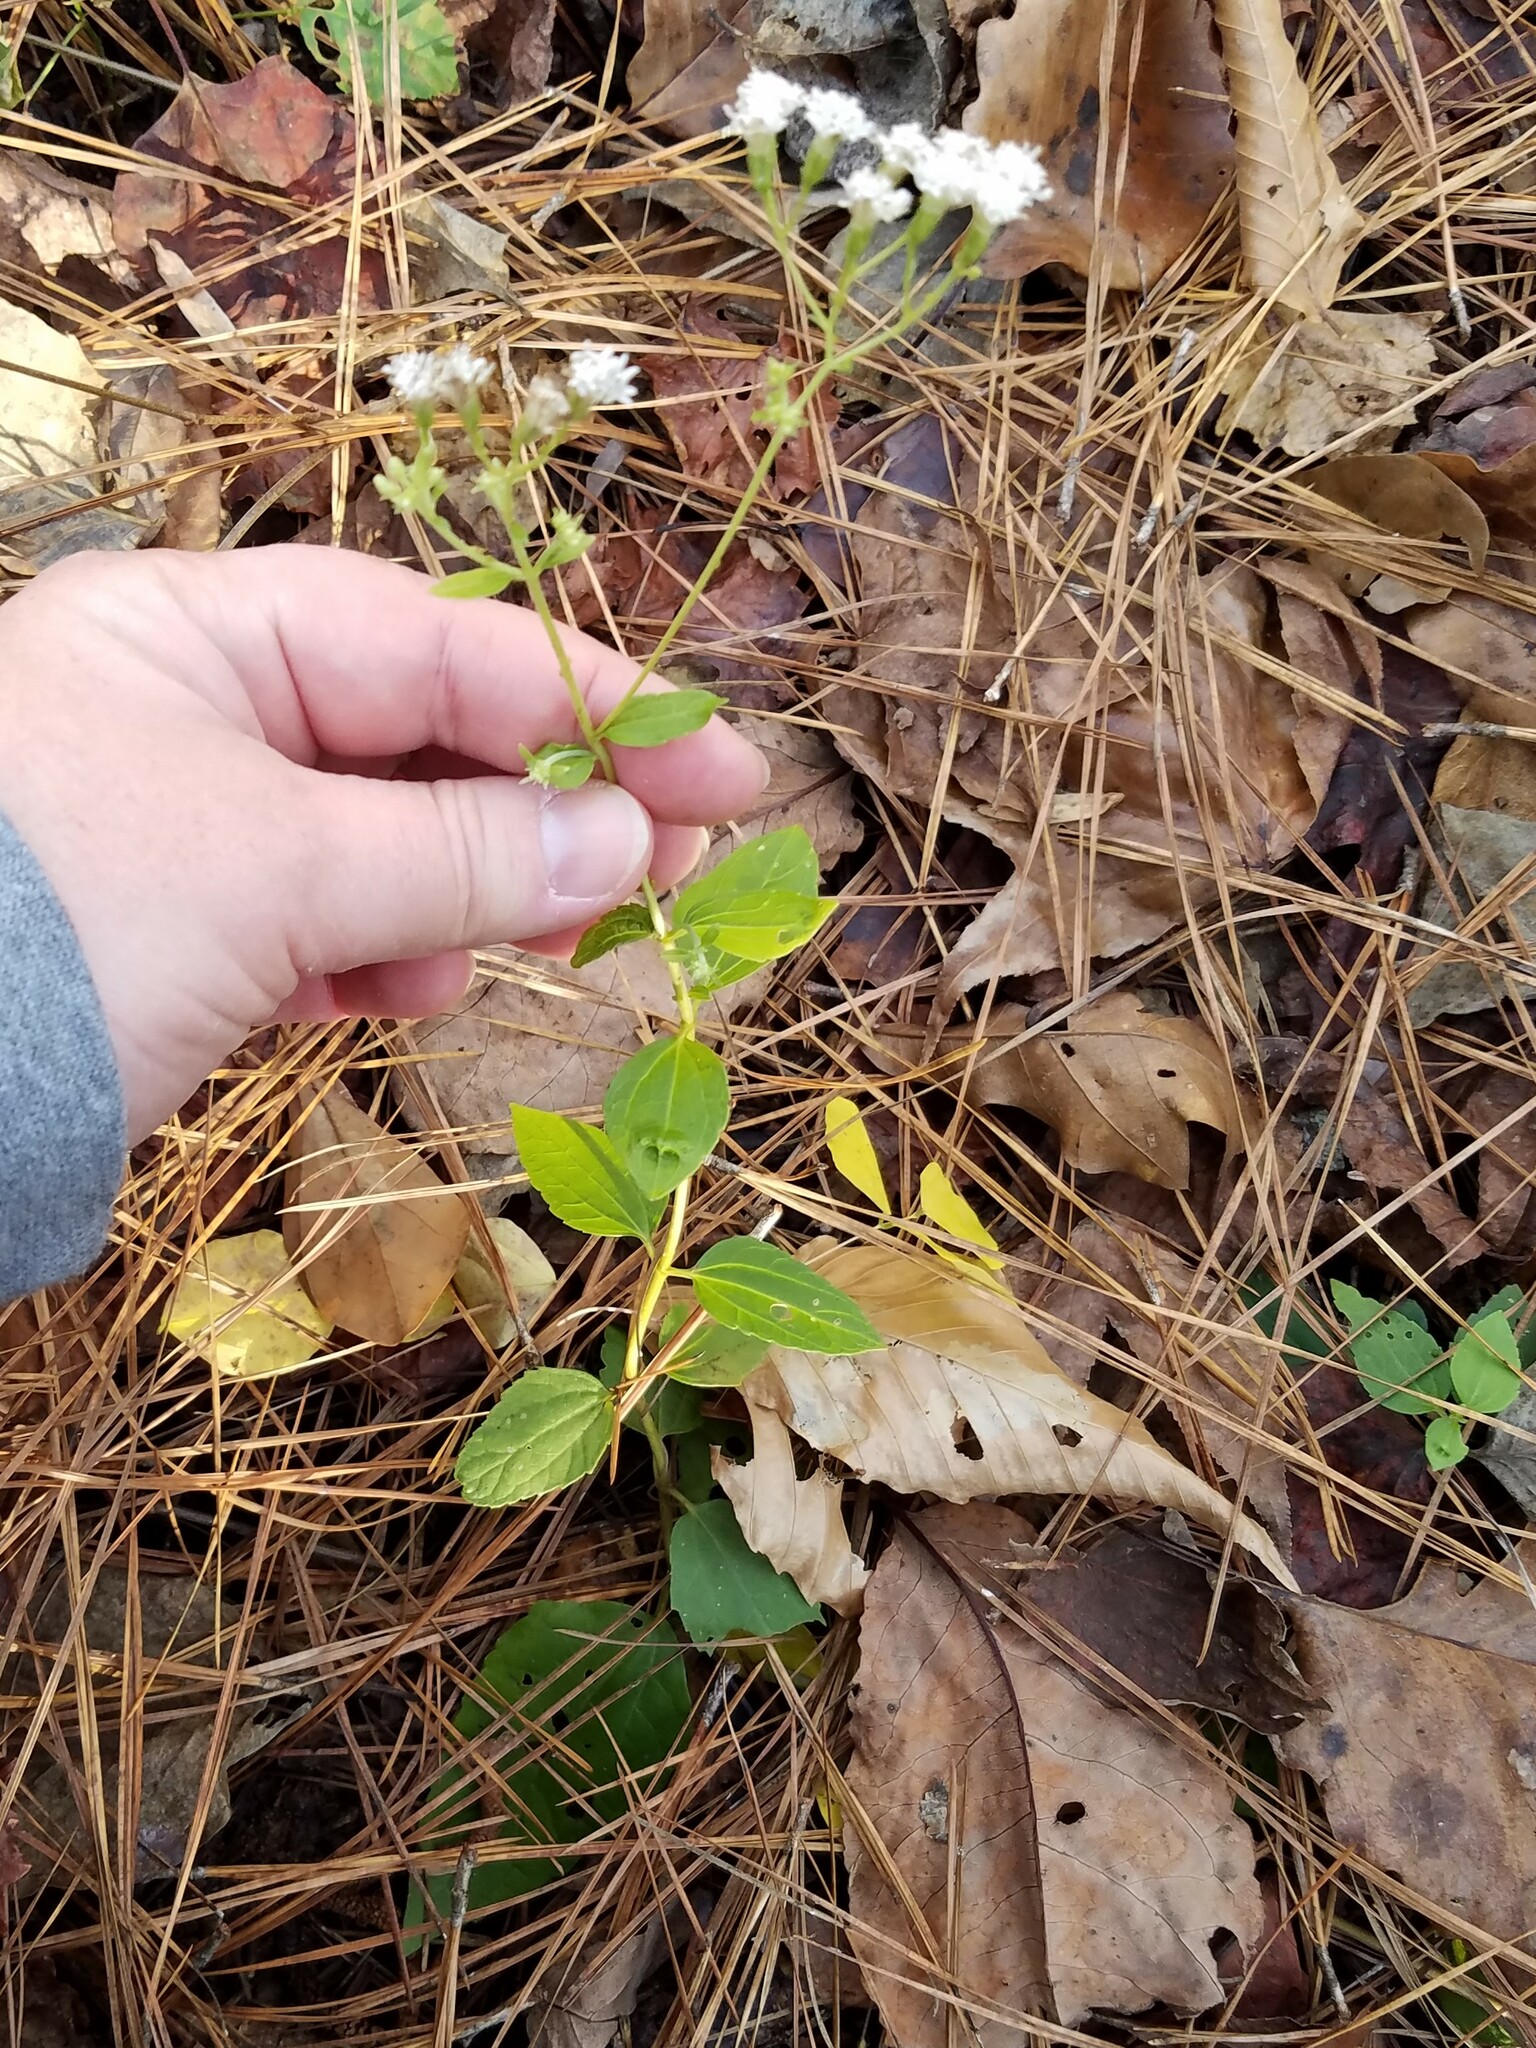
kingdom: Plantae
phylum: Tracheophyta
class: Magnoliopsida
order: Asterales
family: Asteraceae
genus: Ageratina
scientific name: Ageratina aromatica
